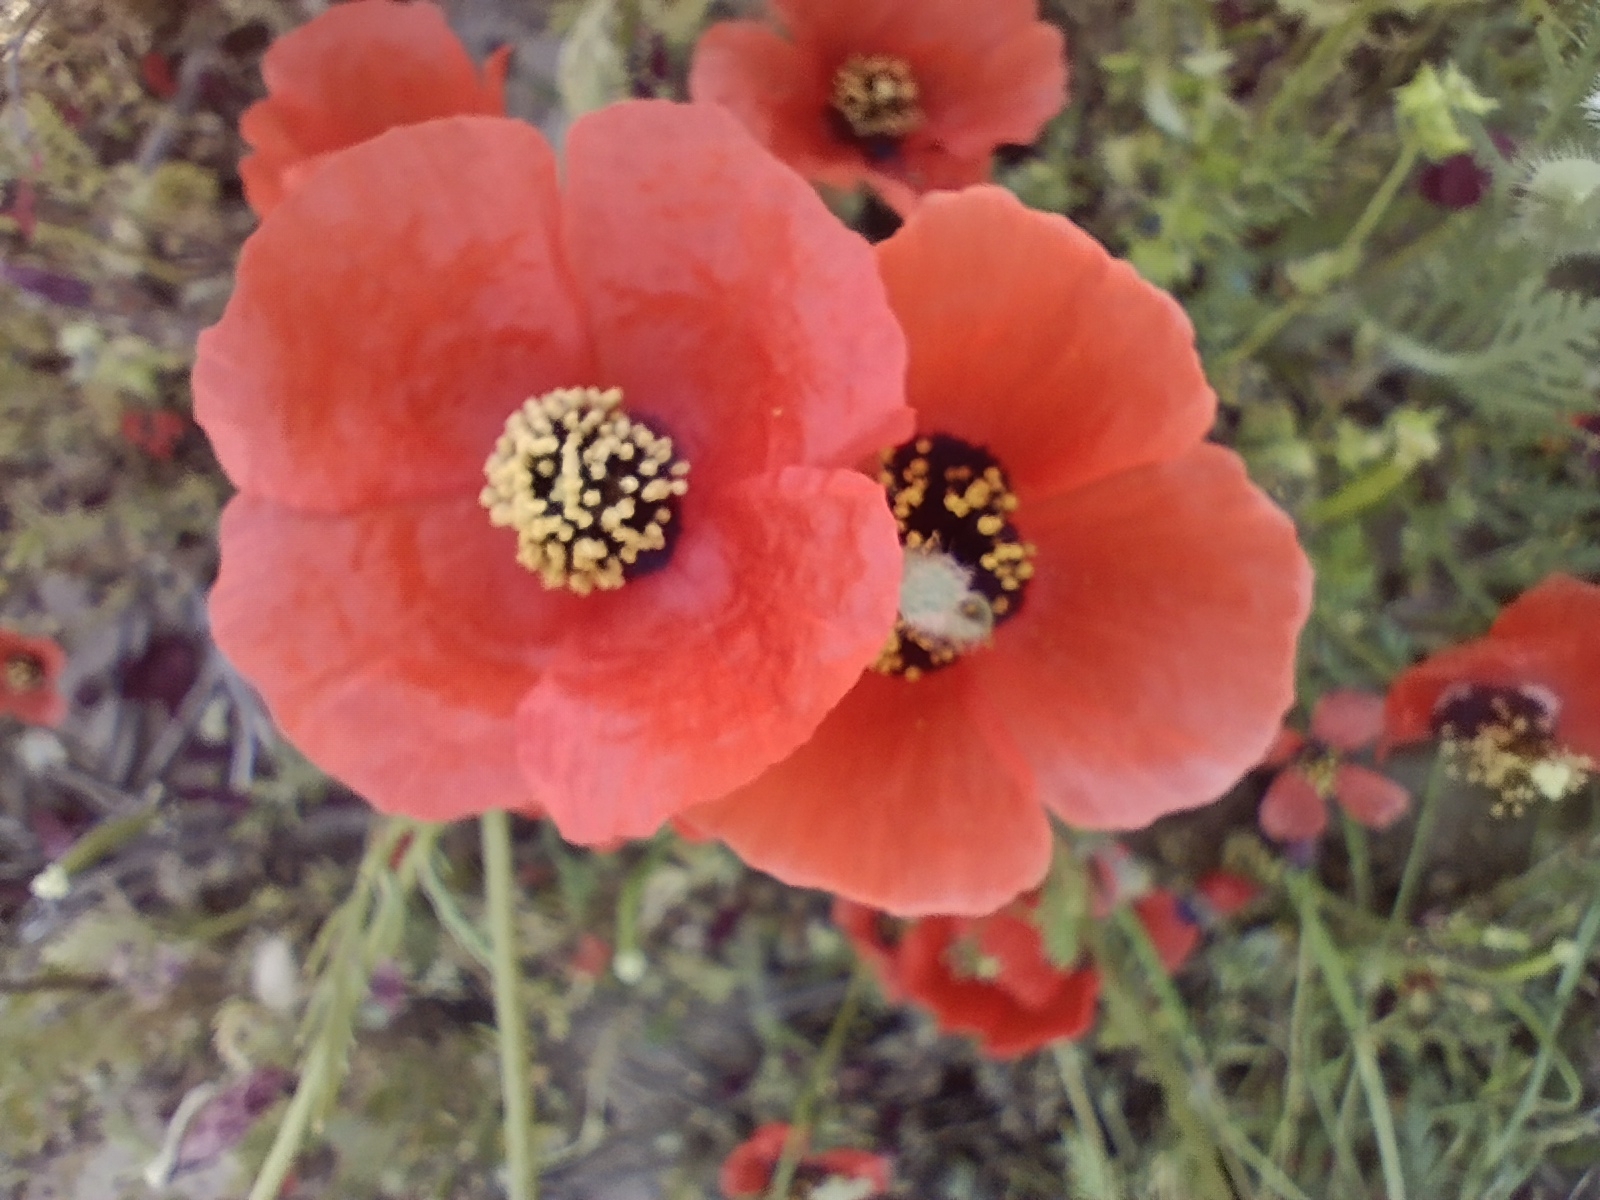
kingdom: Plantae
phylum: Tracheophyta
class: Magnoliopsida
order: Ranunculales
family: Papaveraceae
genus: Roemeria
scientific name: Roemeria refracta
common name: Spotted asian poppy
